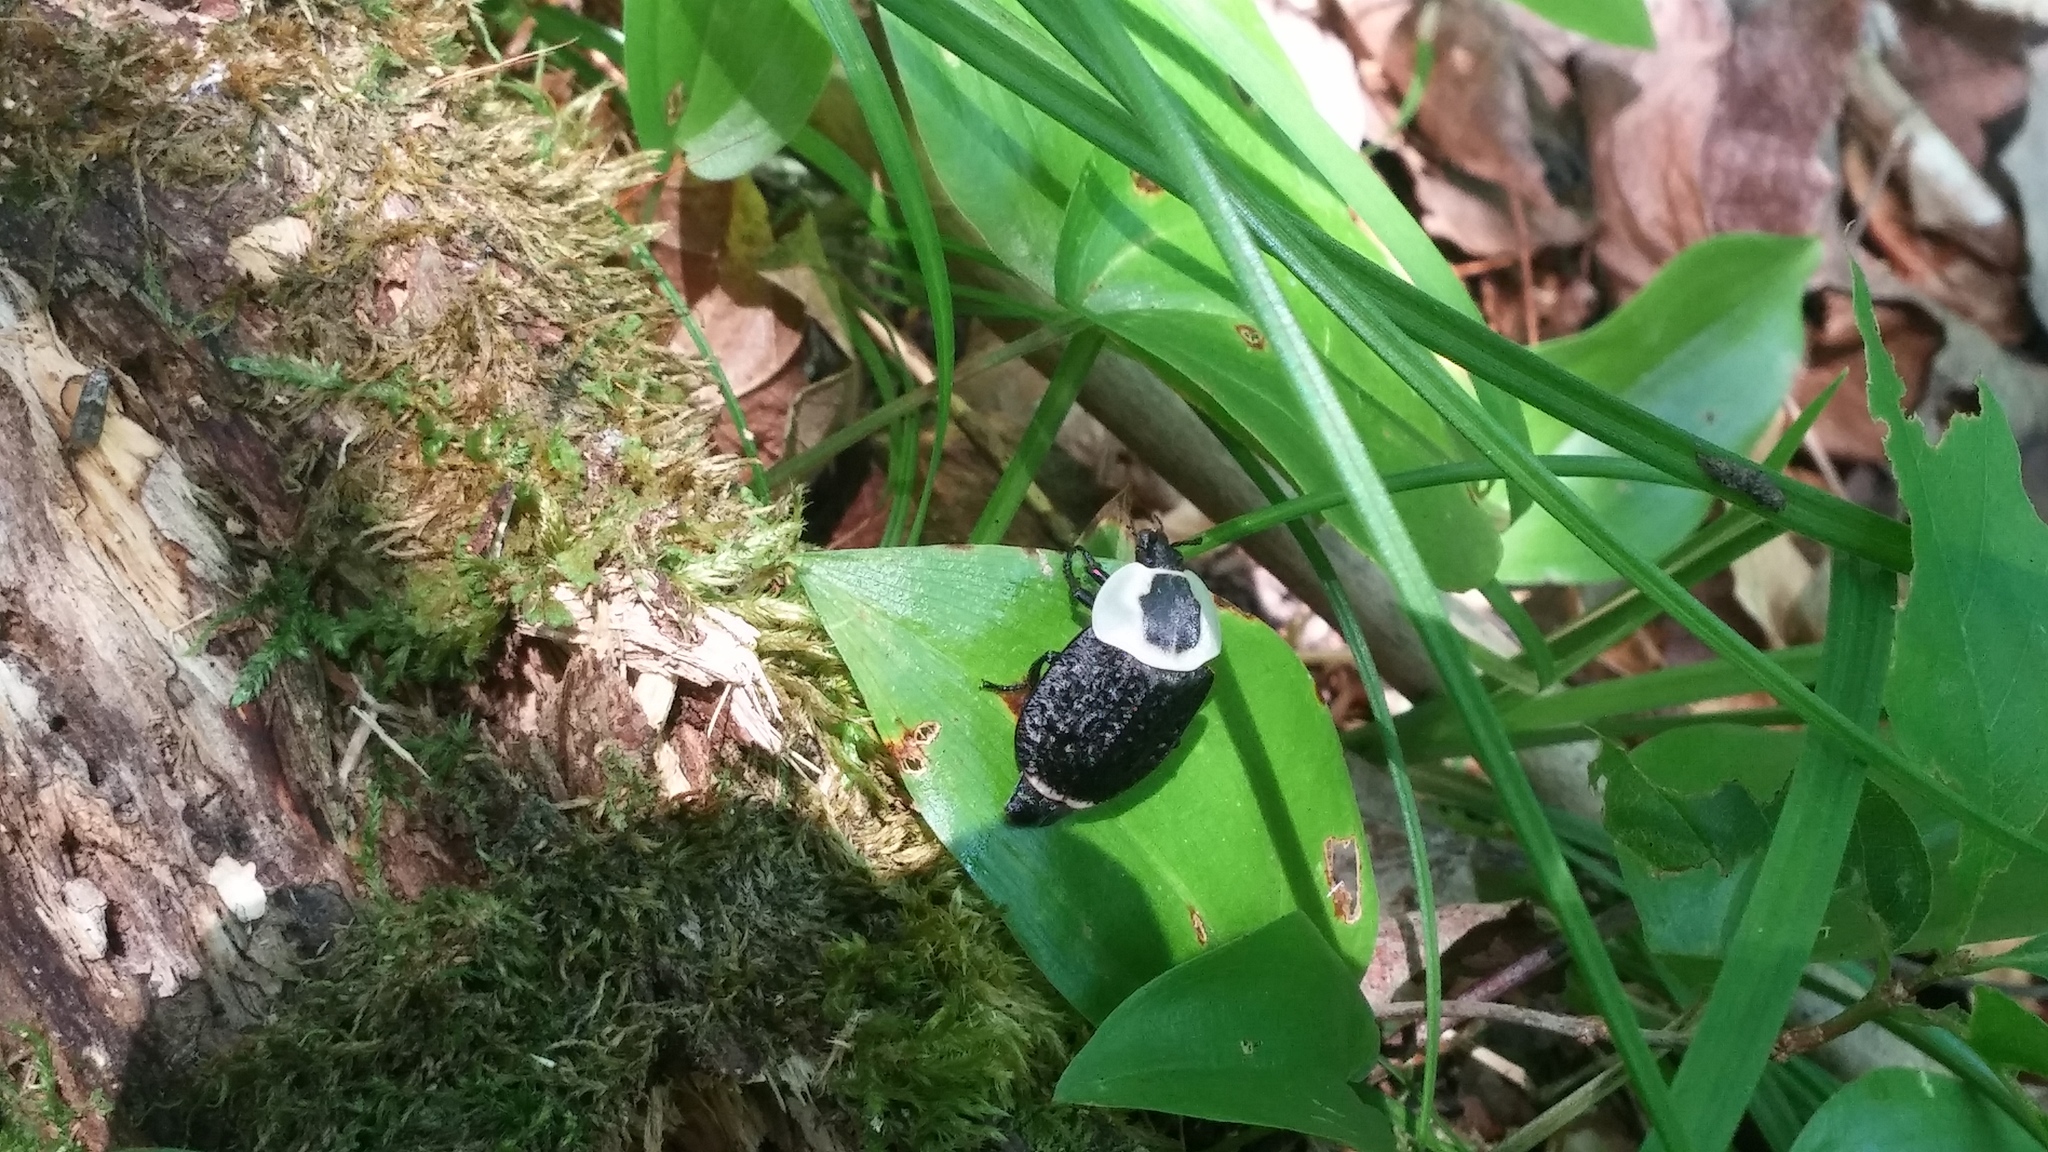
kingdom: Animalia
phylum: Arthropoda
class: Insecta
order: Coleoptera
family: Staphylinidae
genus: Necrophila
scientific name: Necrophila americana
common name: American carrion beetle
